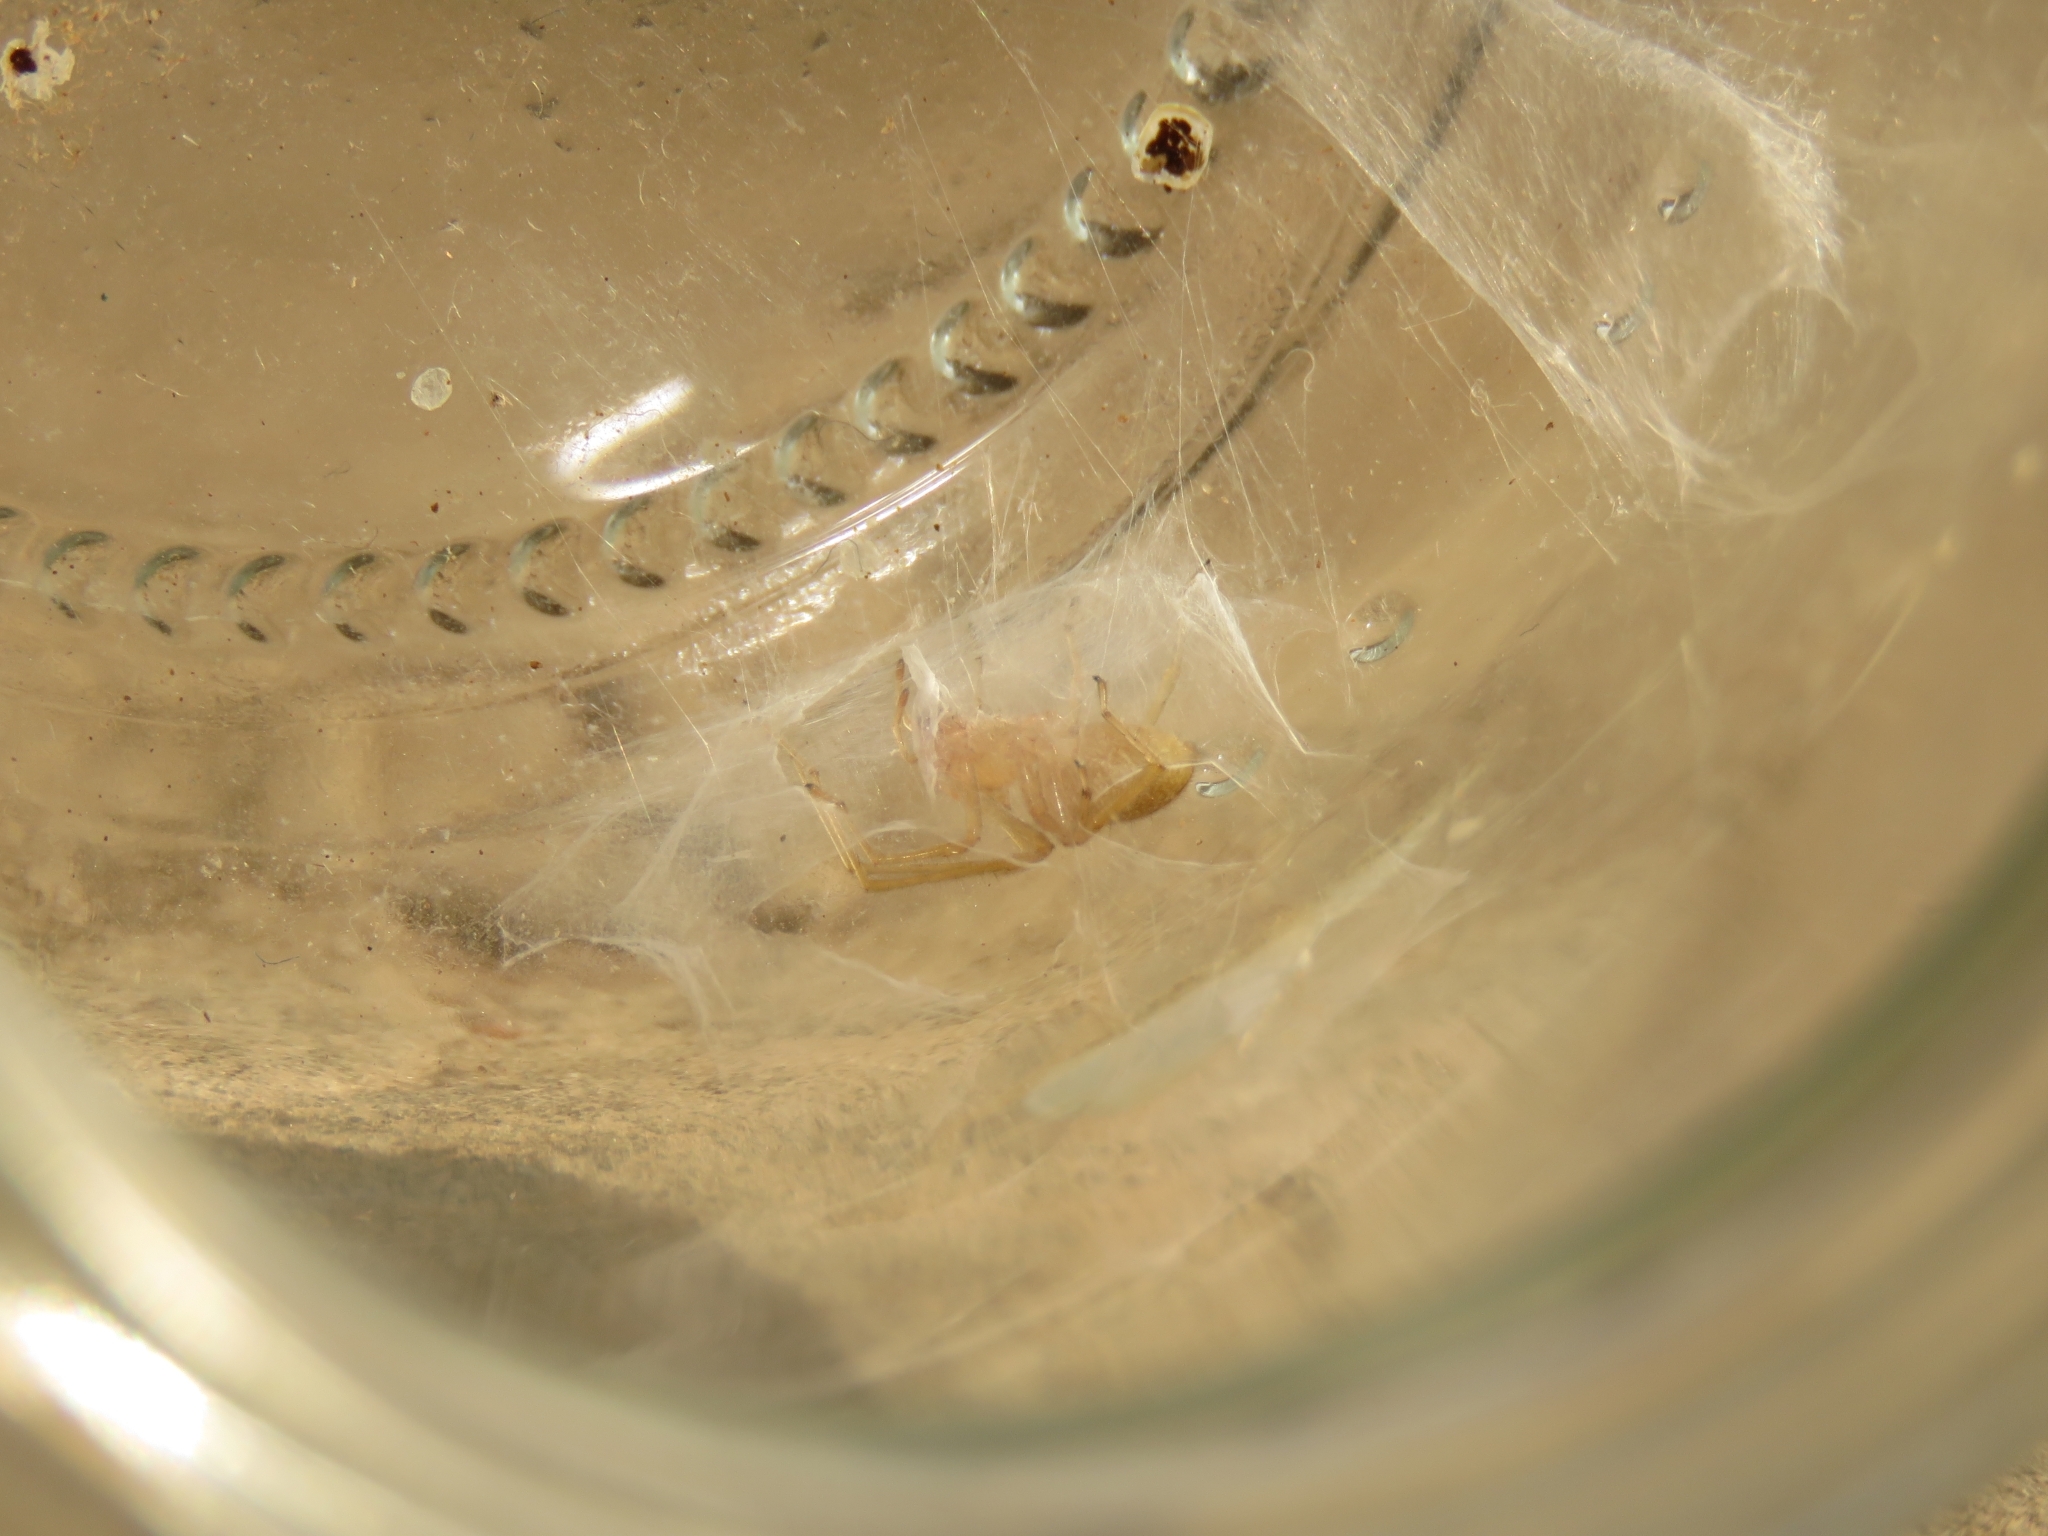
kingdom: Animalia
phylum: Arthropoda
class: Arachnida
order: Araneae
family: Cheiracanthiidae
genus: Cheiramiona
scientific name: Cheiramiona clavigera
